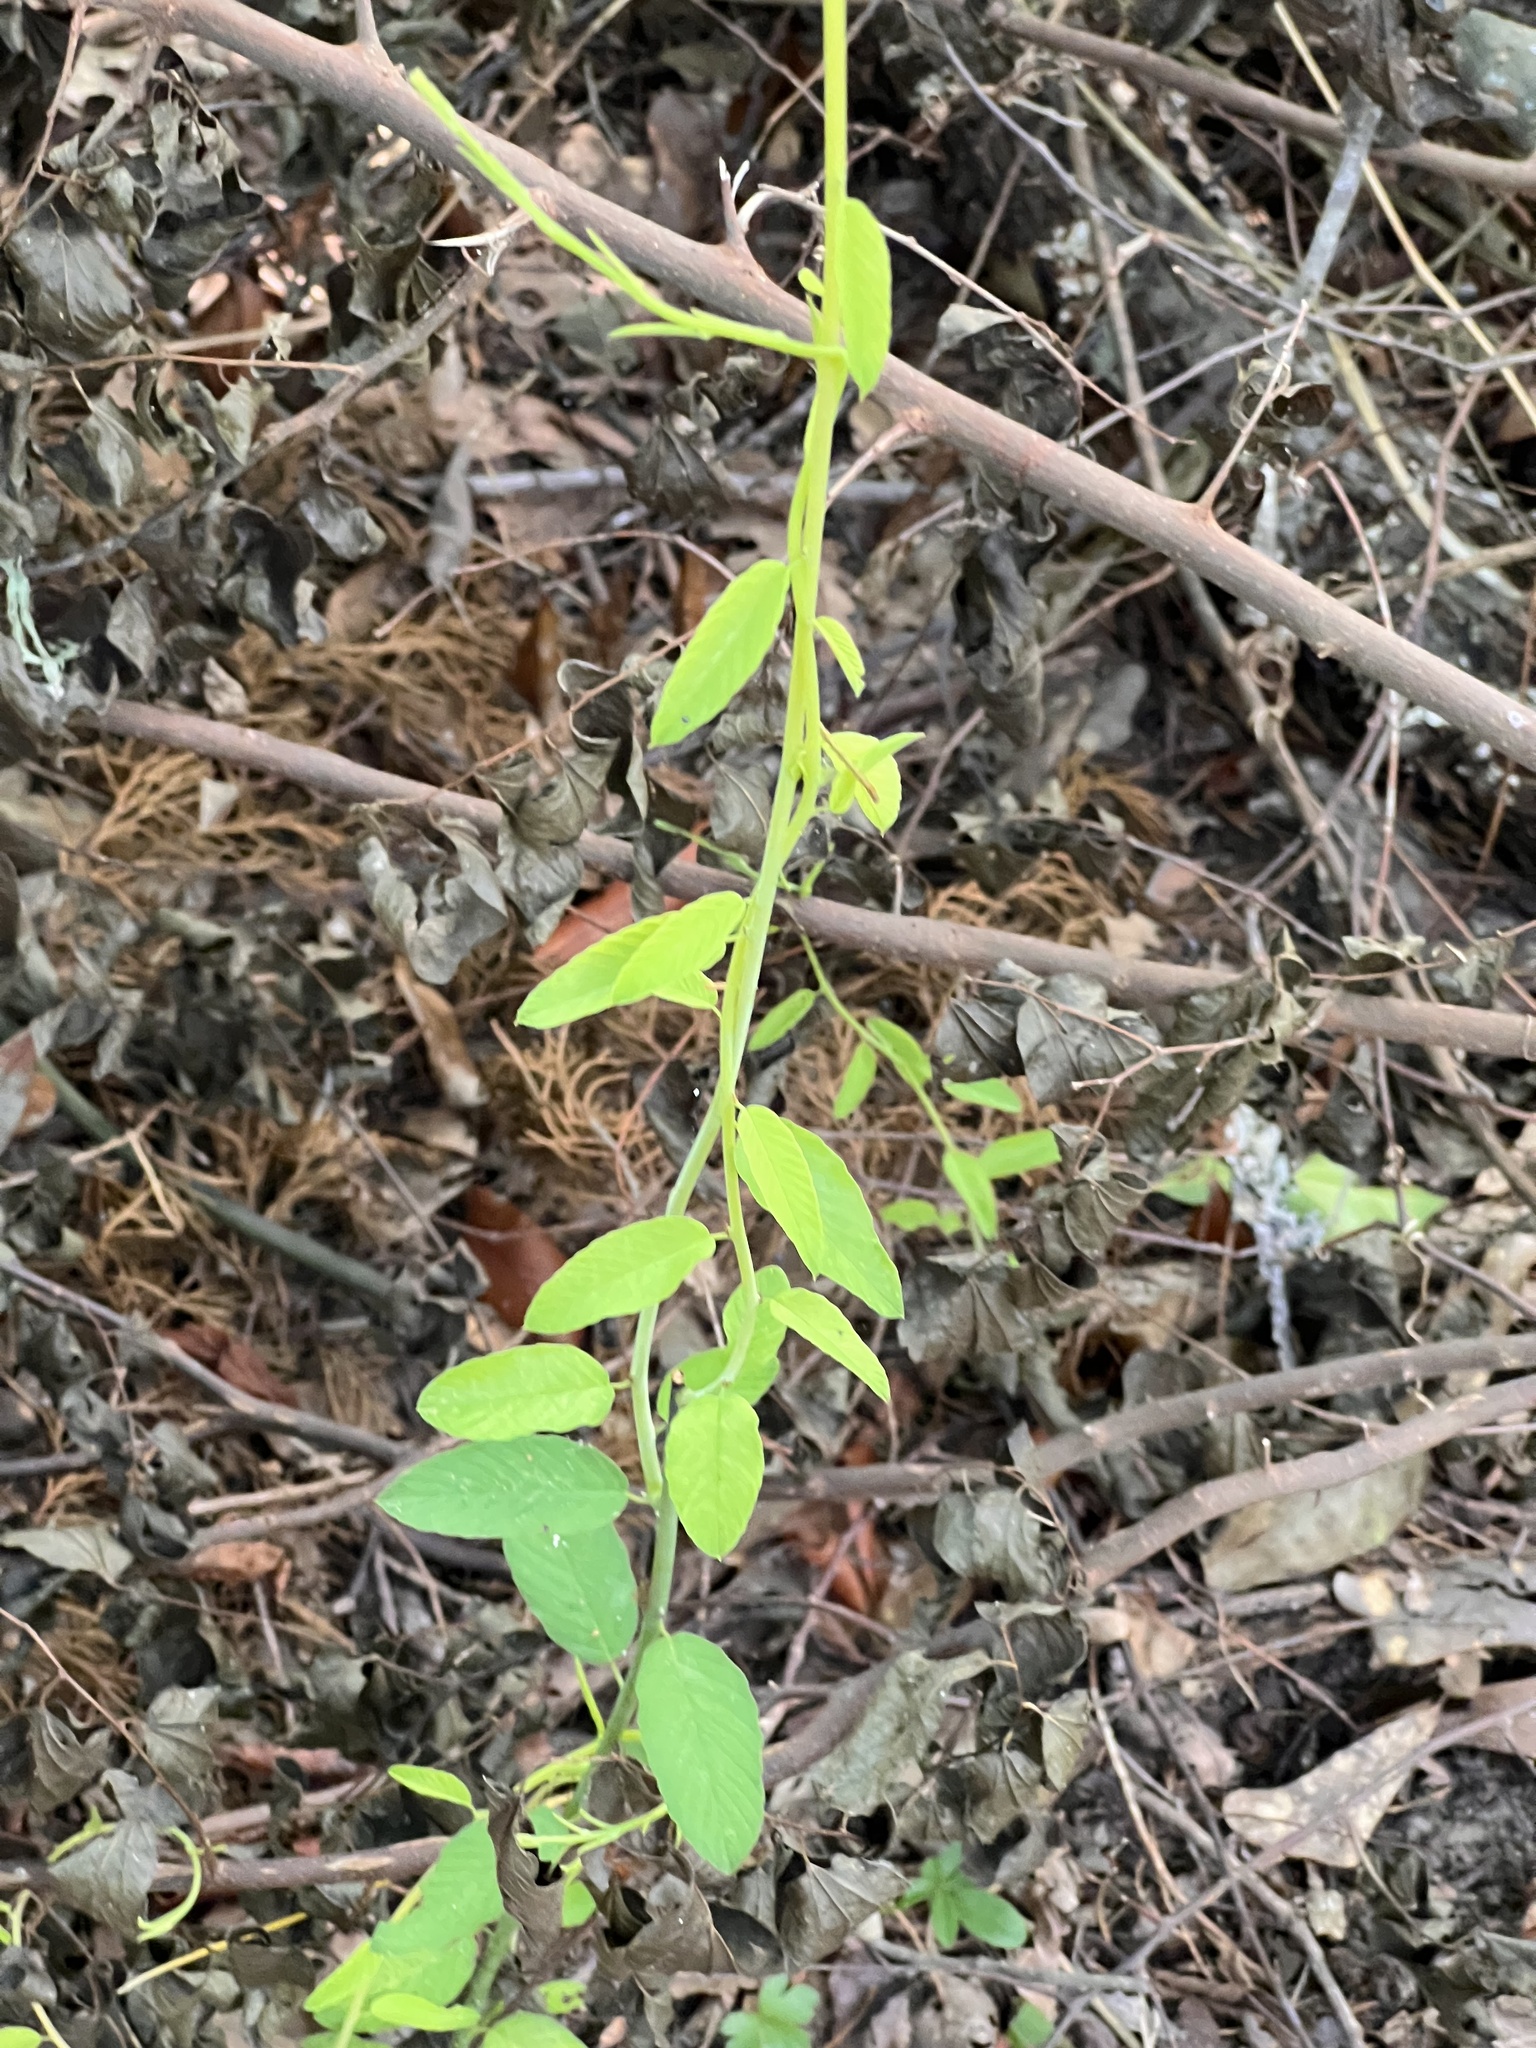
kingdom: Plantae
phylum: Tracheophyta
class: Magnoliopsida
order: Rosales
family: Rhamnaceae
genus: Berchemia
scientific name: Berchemia scandens
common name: Supplejack
